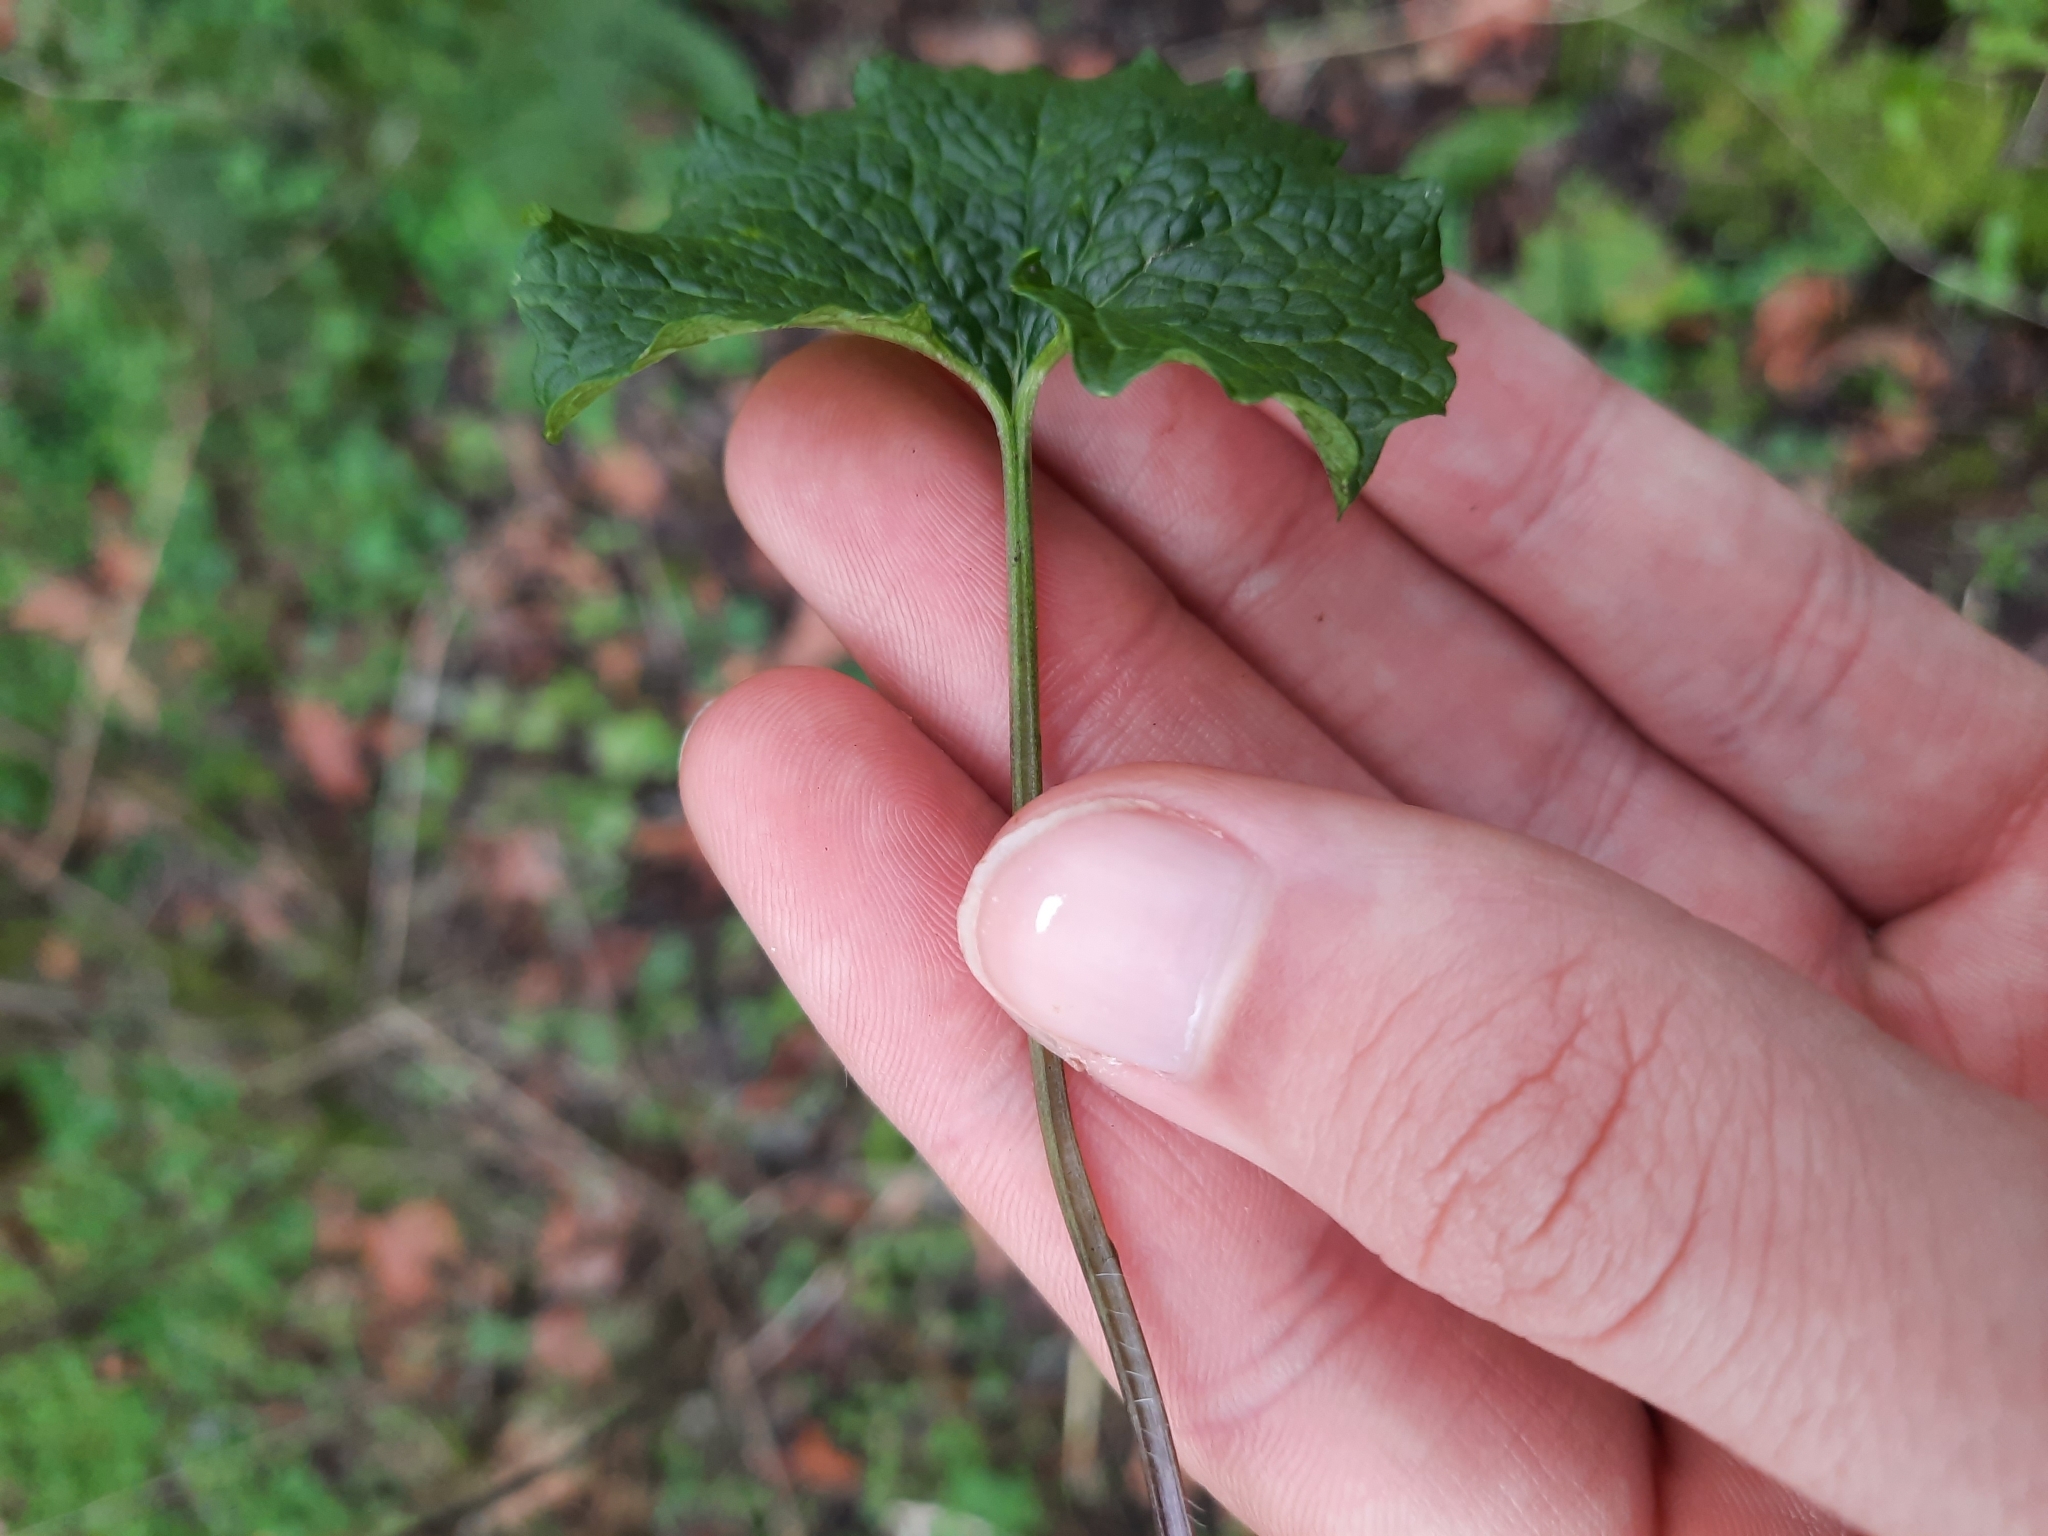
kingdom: Plantae
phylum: Tracheophyta
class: Magnoliopsida
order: Brassicales
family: Brassicaceae
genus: Alliaria
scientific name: Alliaria petiolata
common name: Garlic mustard
